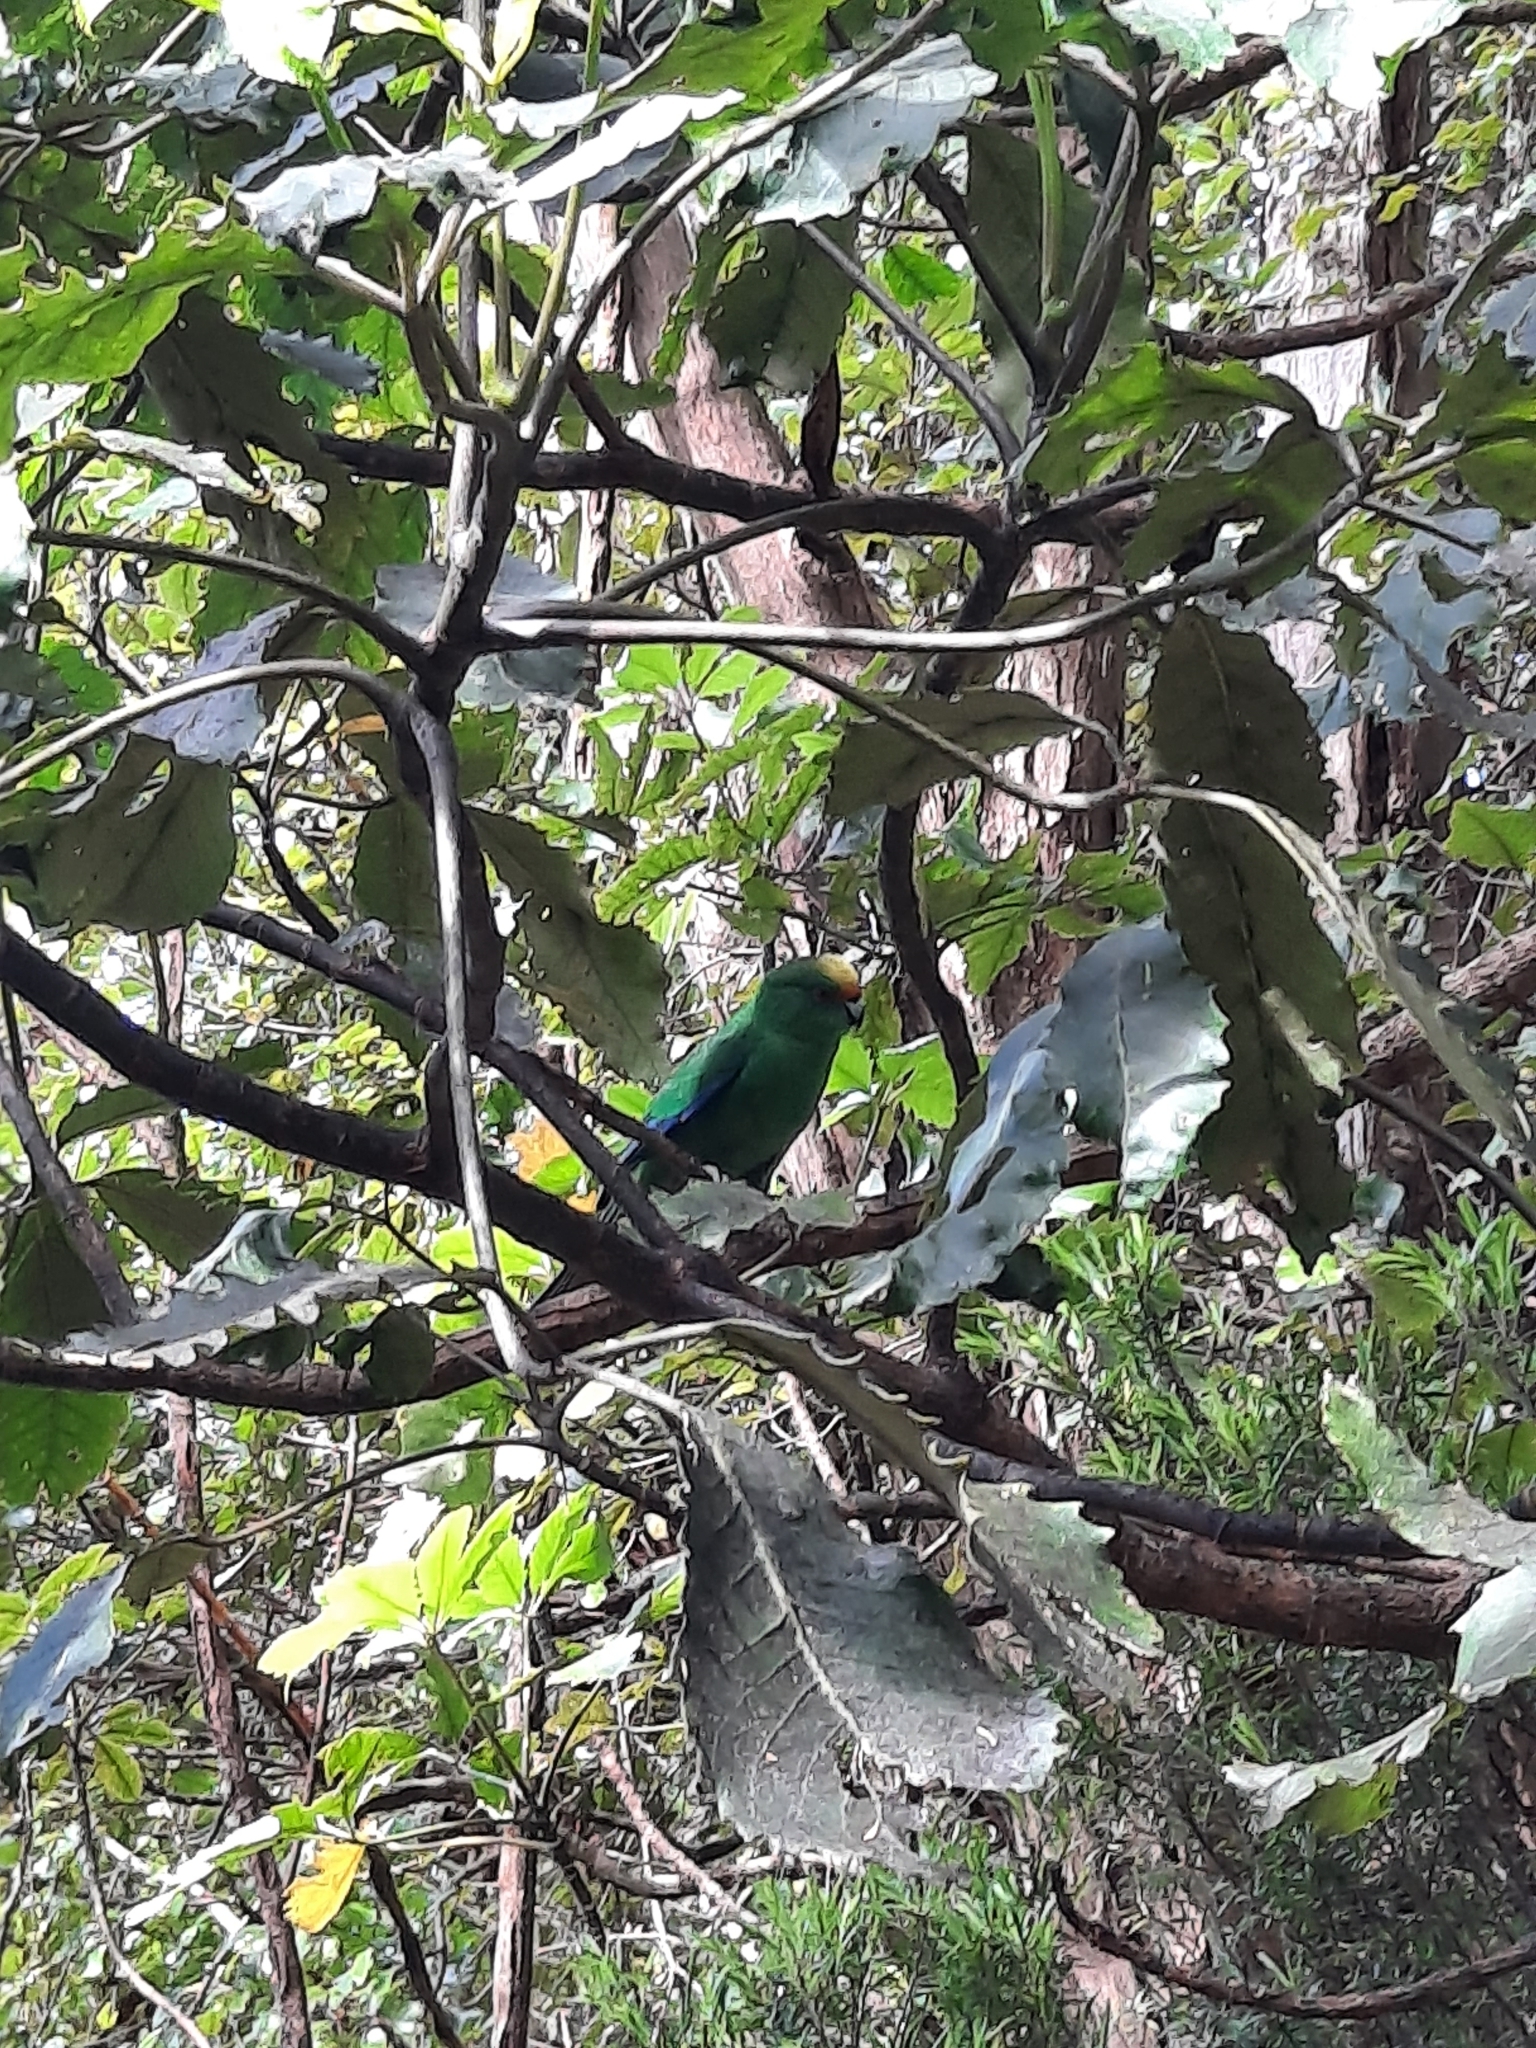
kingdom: Animalia
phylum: Chordata
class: Aves
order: Psittaciformes
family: Psittacidae
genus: Cyanoramphus
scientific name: Cyanoramphus malherbi
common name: Malherbe's parakeet
